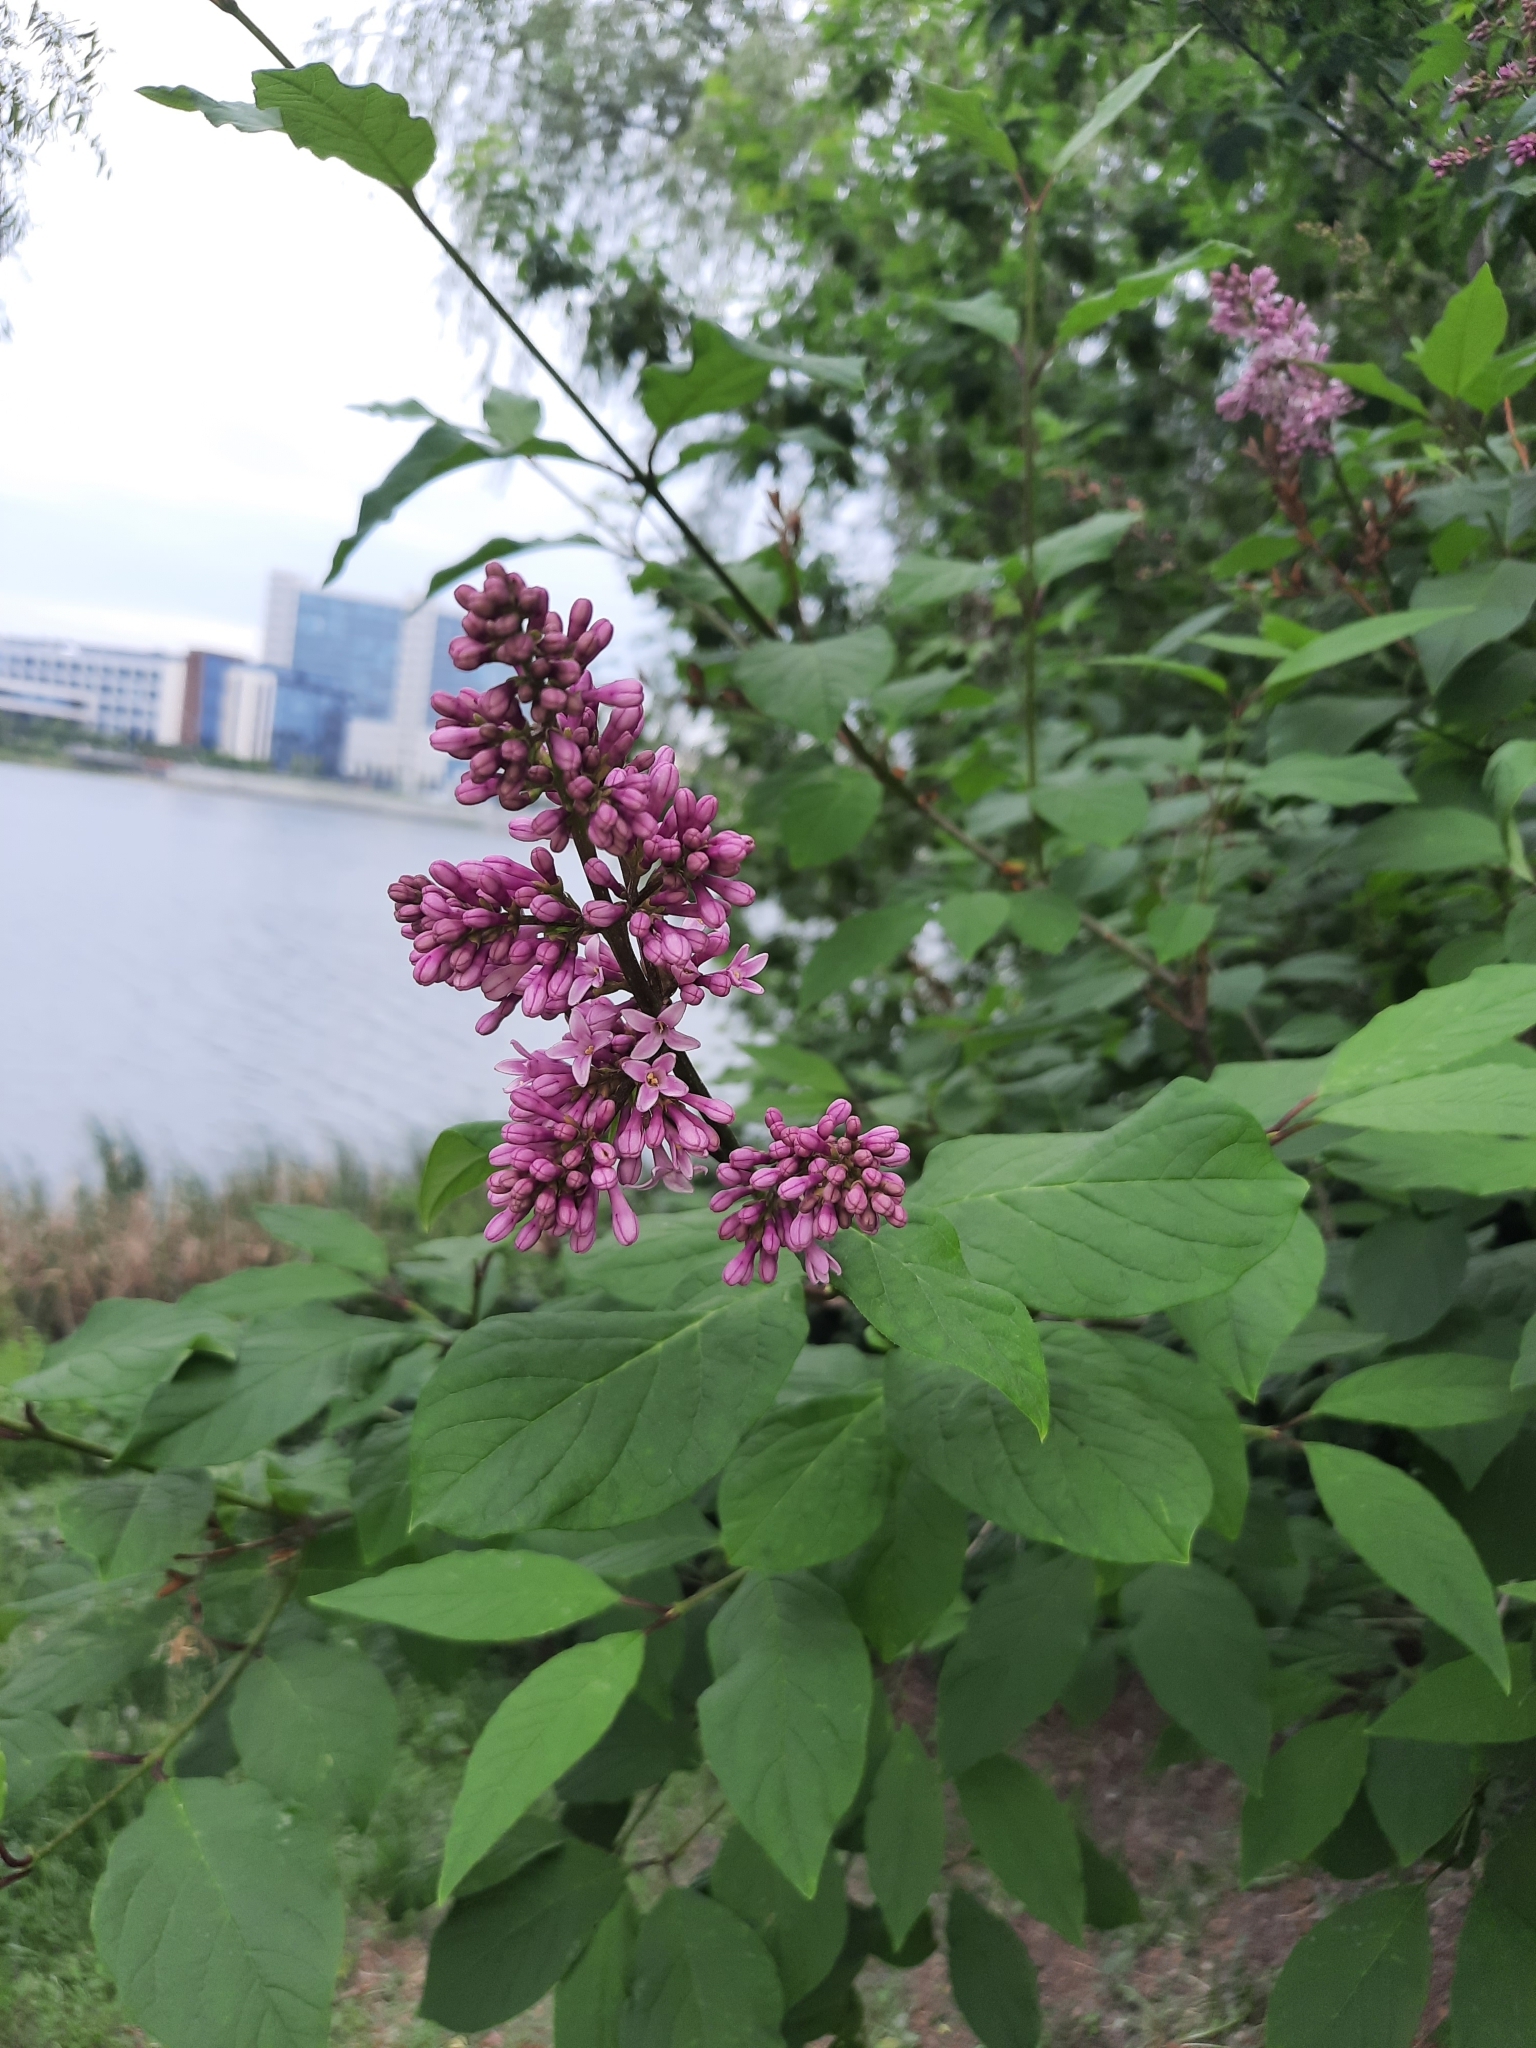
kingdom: Plantae
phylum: Tracheophyta
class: Magnoliopsida
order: Lamiales
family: Oleaceae
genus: Syringa
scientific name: Syringa josikaea
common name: Hungarian lilac
